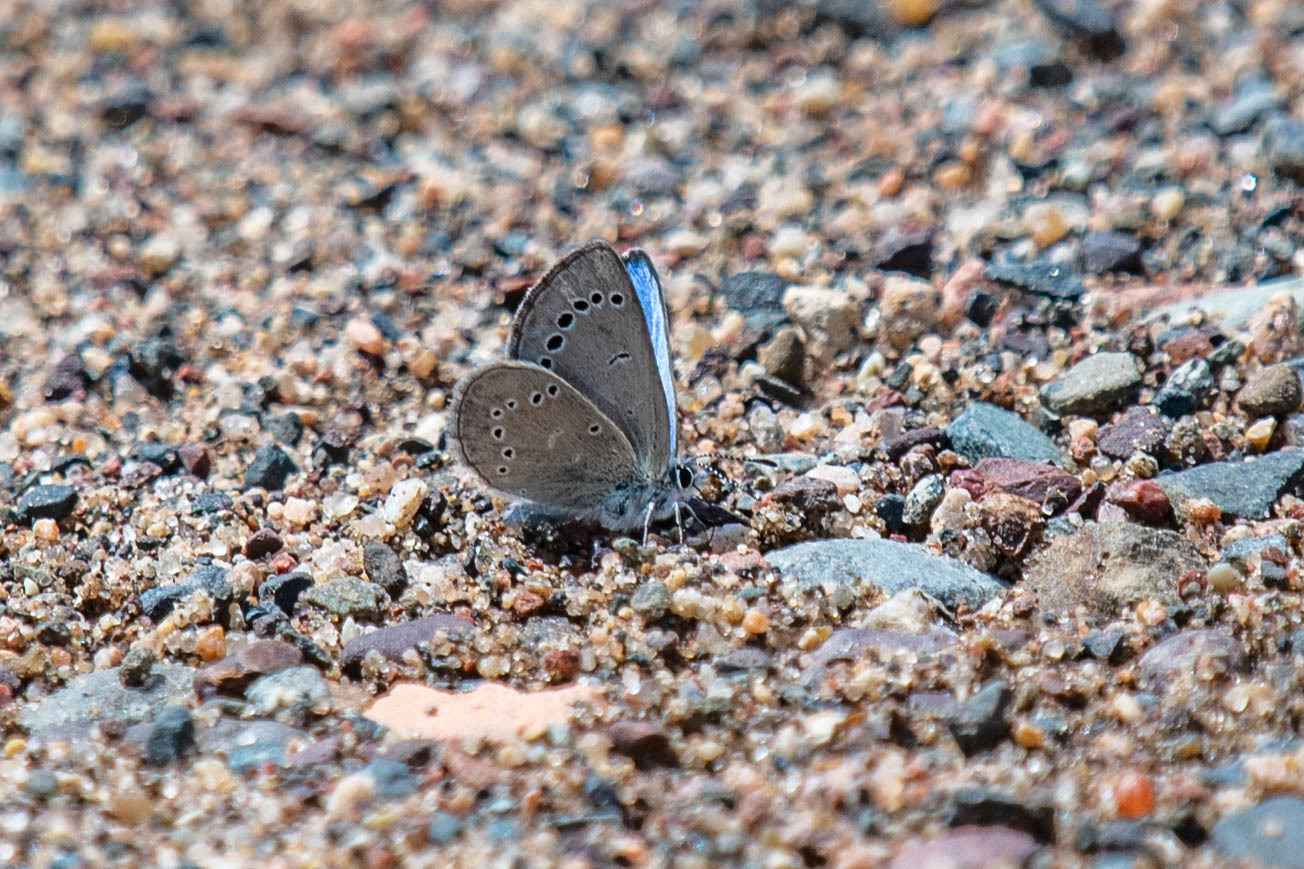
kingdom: Animalia
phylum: Arthropoda
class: Insecta
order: Lepidoptera
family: Lycaenidae
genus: Glaucopsyche
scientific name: Glaucopsyche lygdamus
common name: Silvery blue
